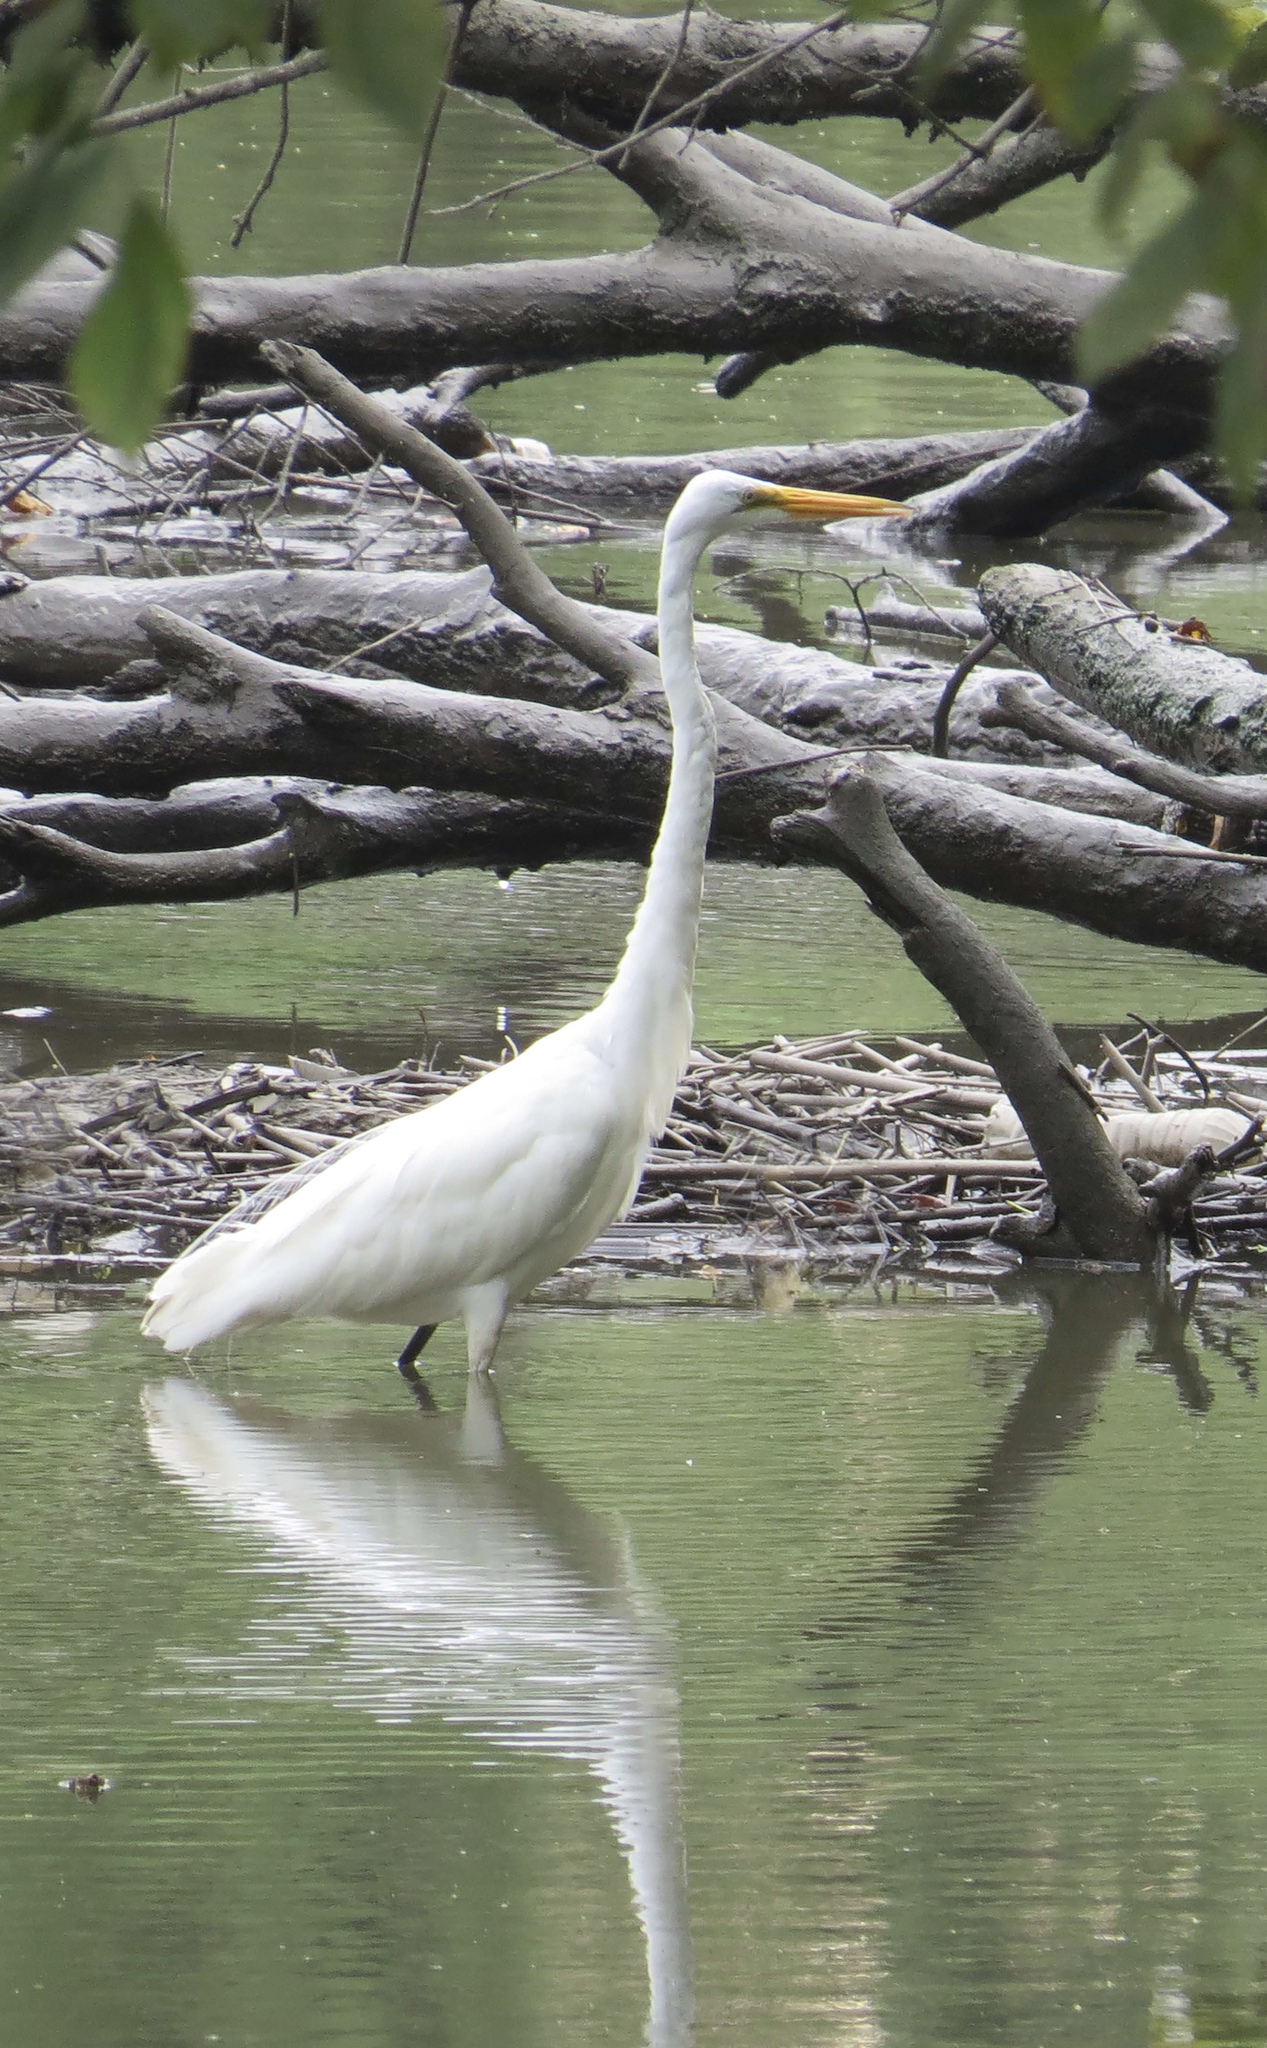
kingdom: Animalia
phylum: Chordata
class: Aves
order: Pelecaniformes
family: Ardeidae
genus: Ardea
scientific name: Ardea alba
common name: Great egret
